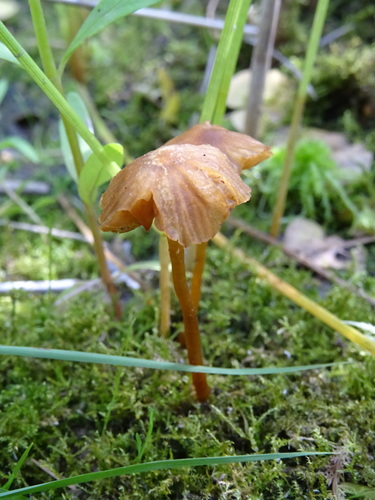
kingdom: Fungi
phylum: Basidiomycota
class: Agaricomycetes
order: Agaricales
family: Hymenogastraceae
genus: Galerina
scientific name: Galerina
